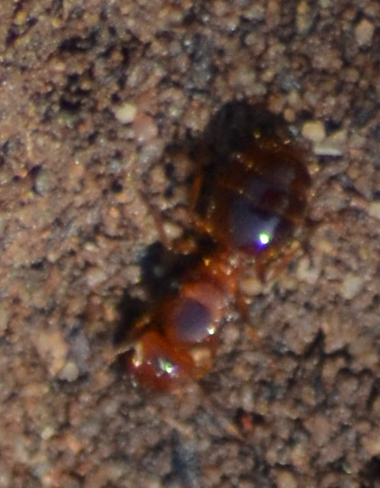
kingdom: Animalia
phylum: Arthropoda
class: Insecta
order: Hymenoptera
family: Formicidae
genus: Pheidole
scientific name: Pheidole pallidula
